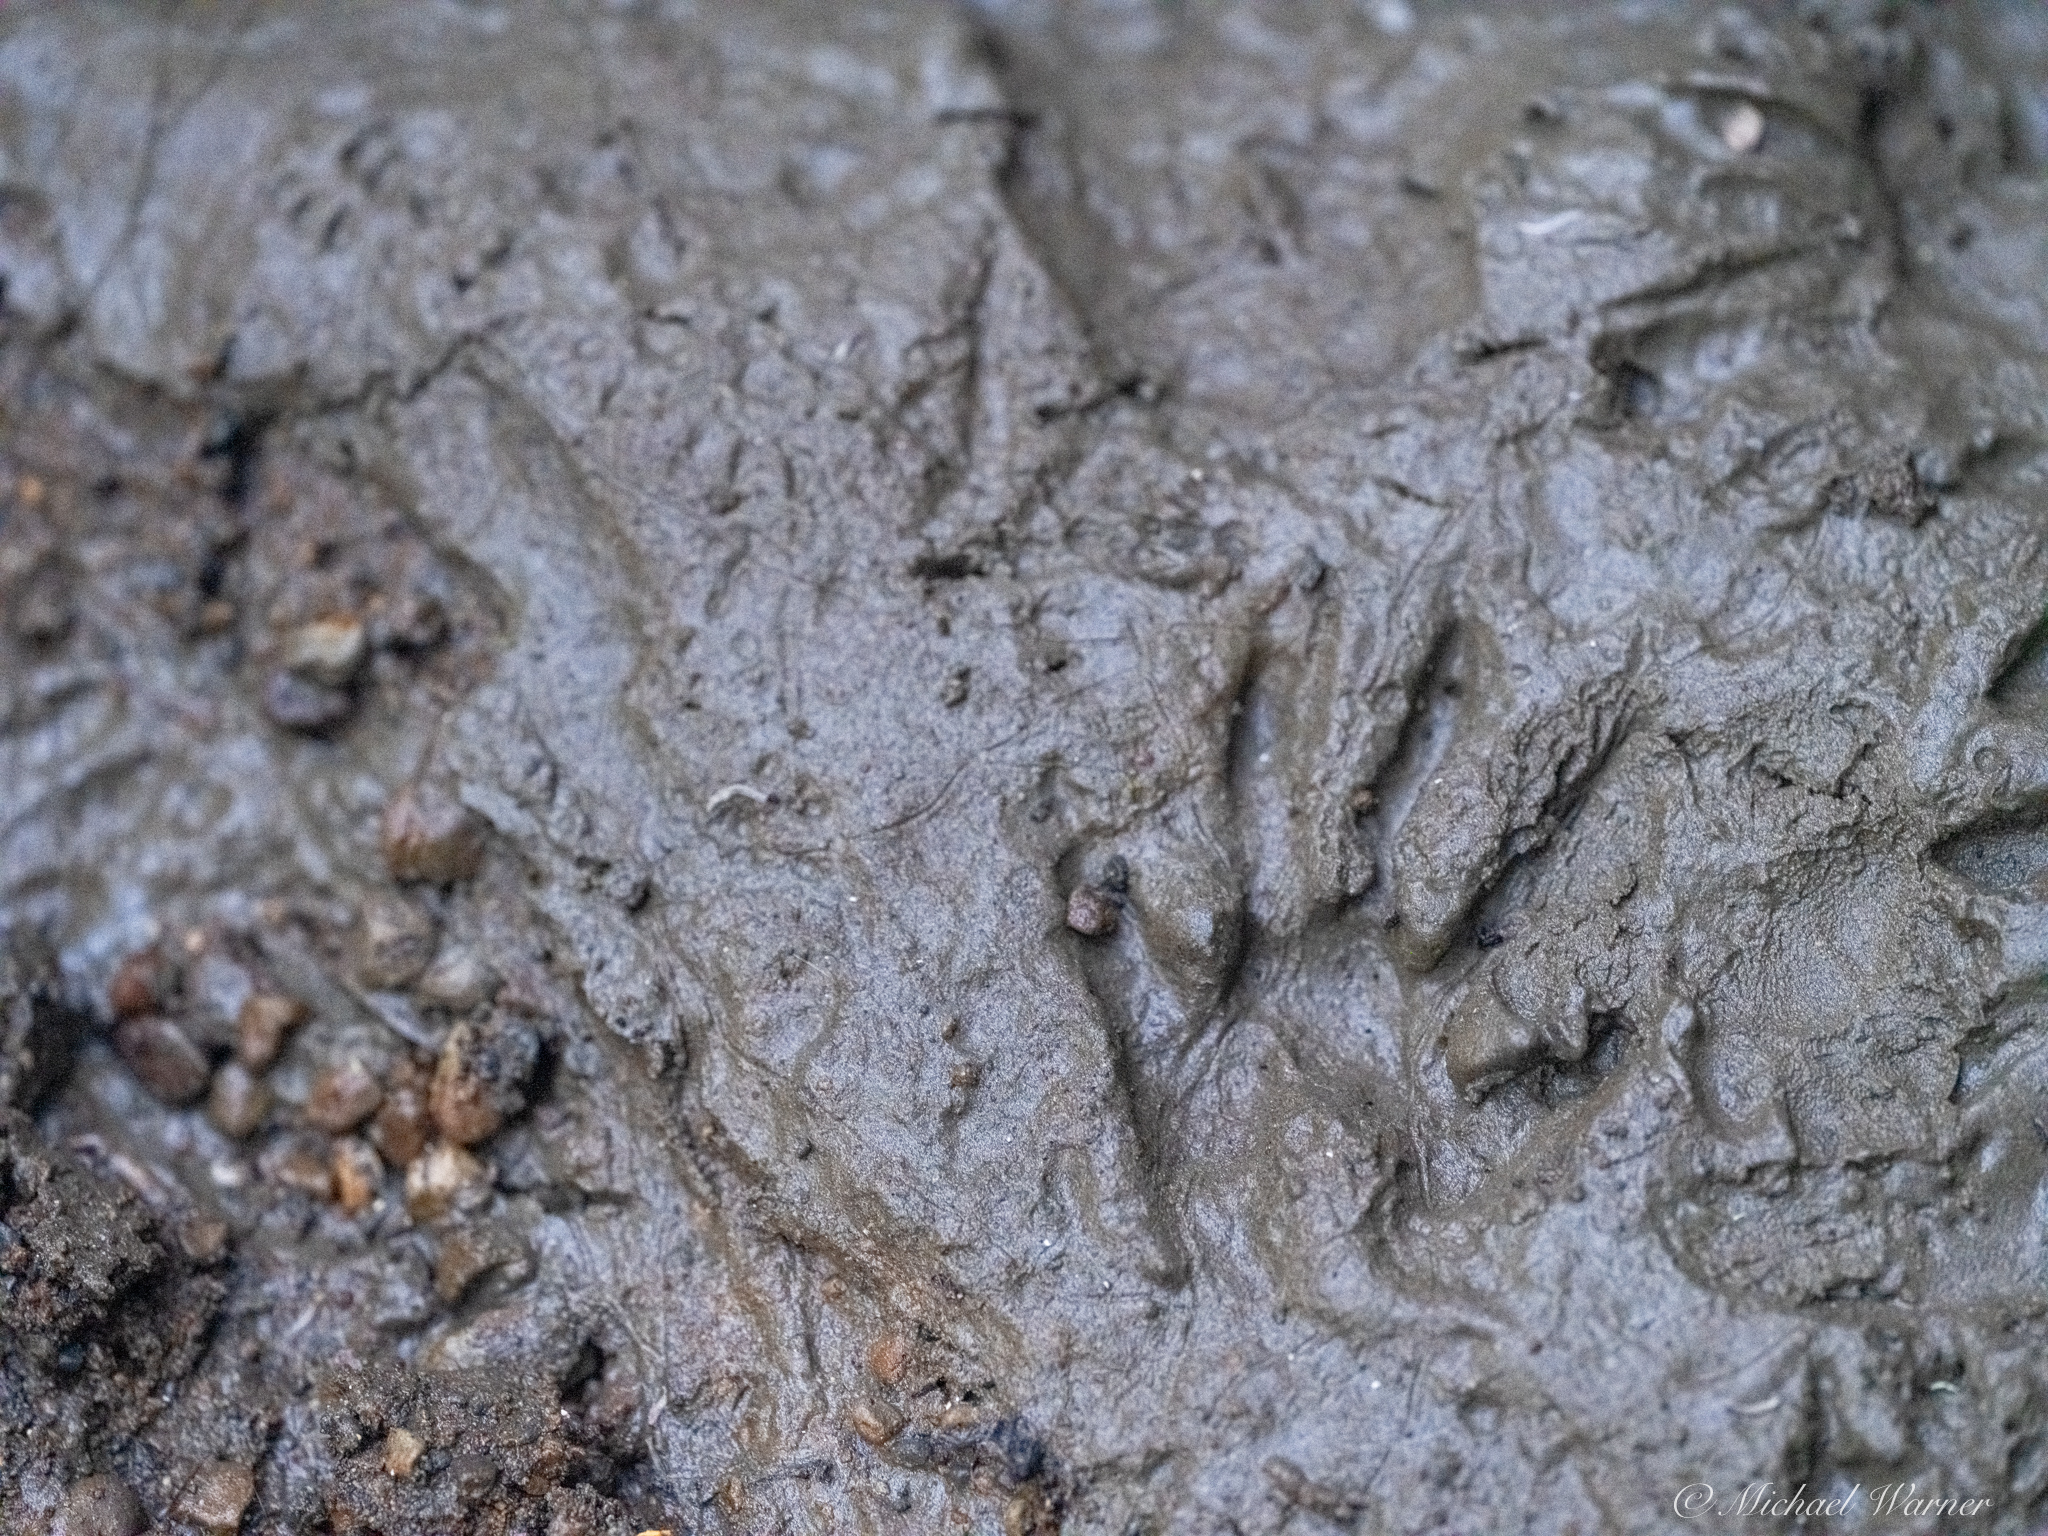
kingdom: Animalia
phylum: Chordata
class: Mammalia
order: Carnivora
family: Procyonidae
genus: Procyon
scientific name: Procyon lotor
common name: Raccoon
